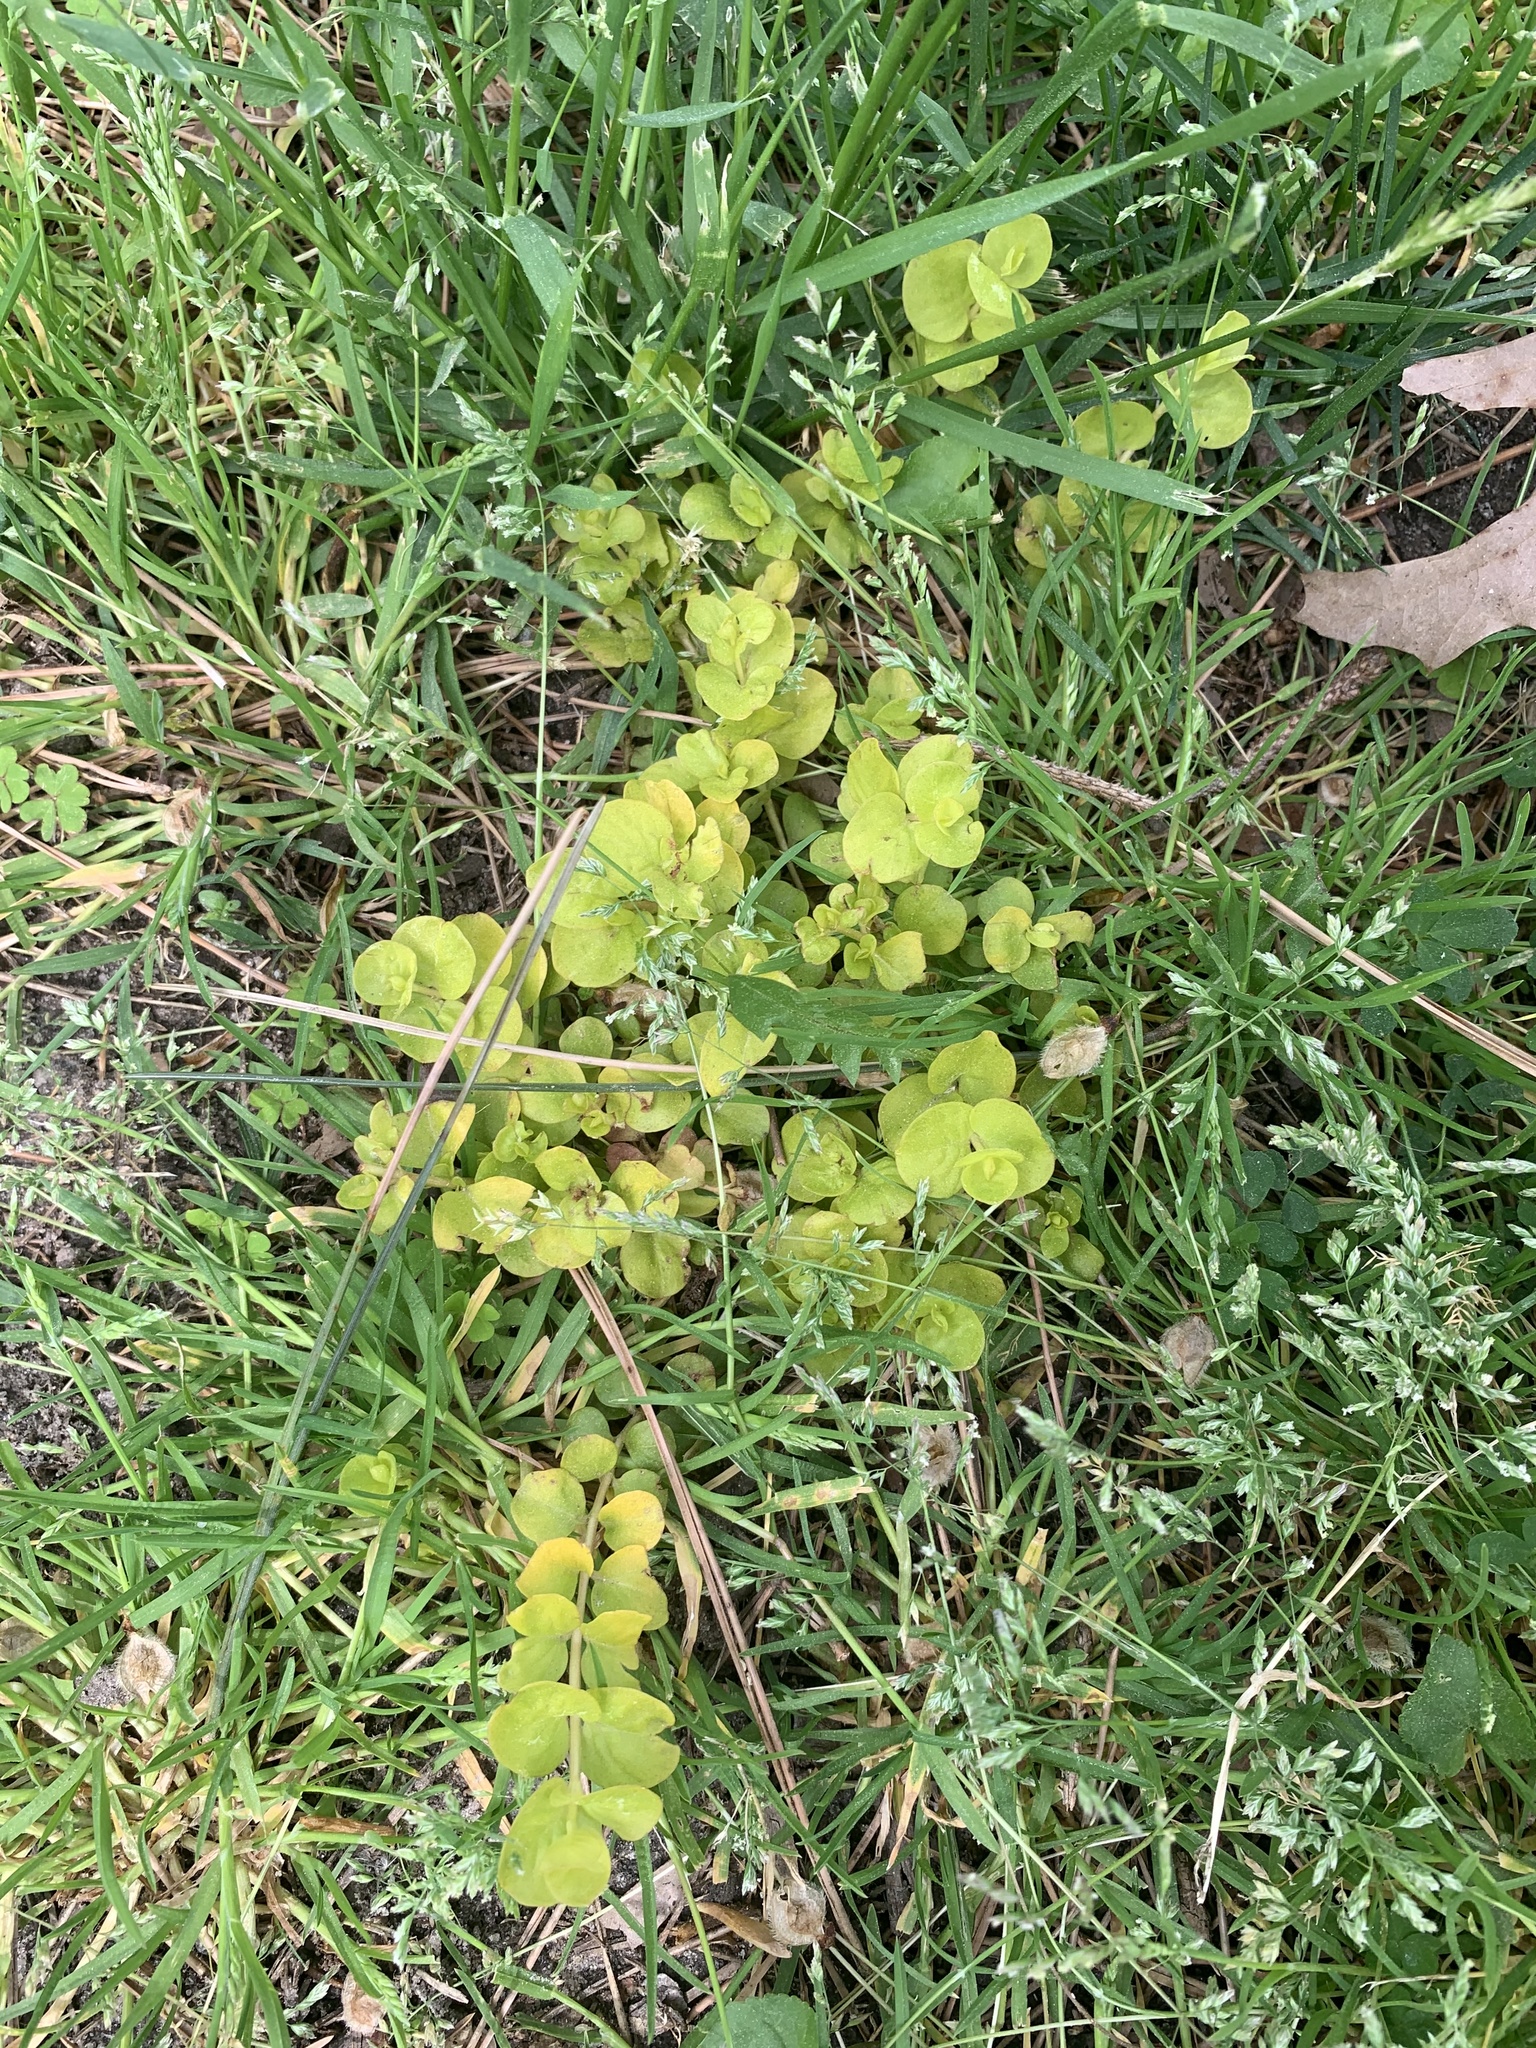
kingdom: Plantae
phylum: Tracheophyta
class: Magnoliopsida
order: Ericales
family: Primulaceae
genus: Lysimachia
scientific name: Lysimachia nummularia
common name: Moneywort
